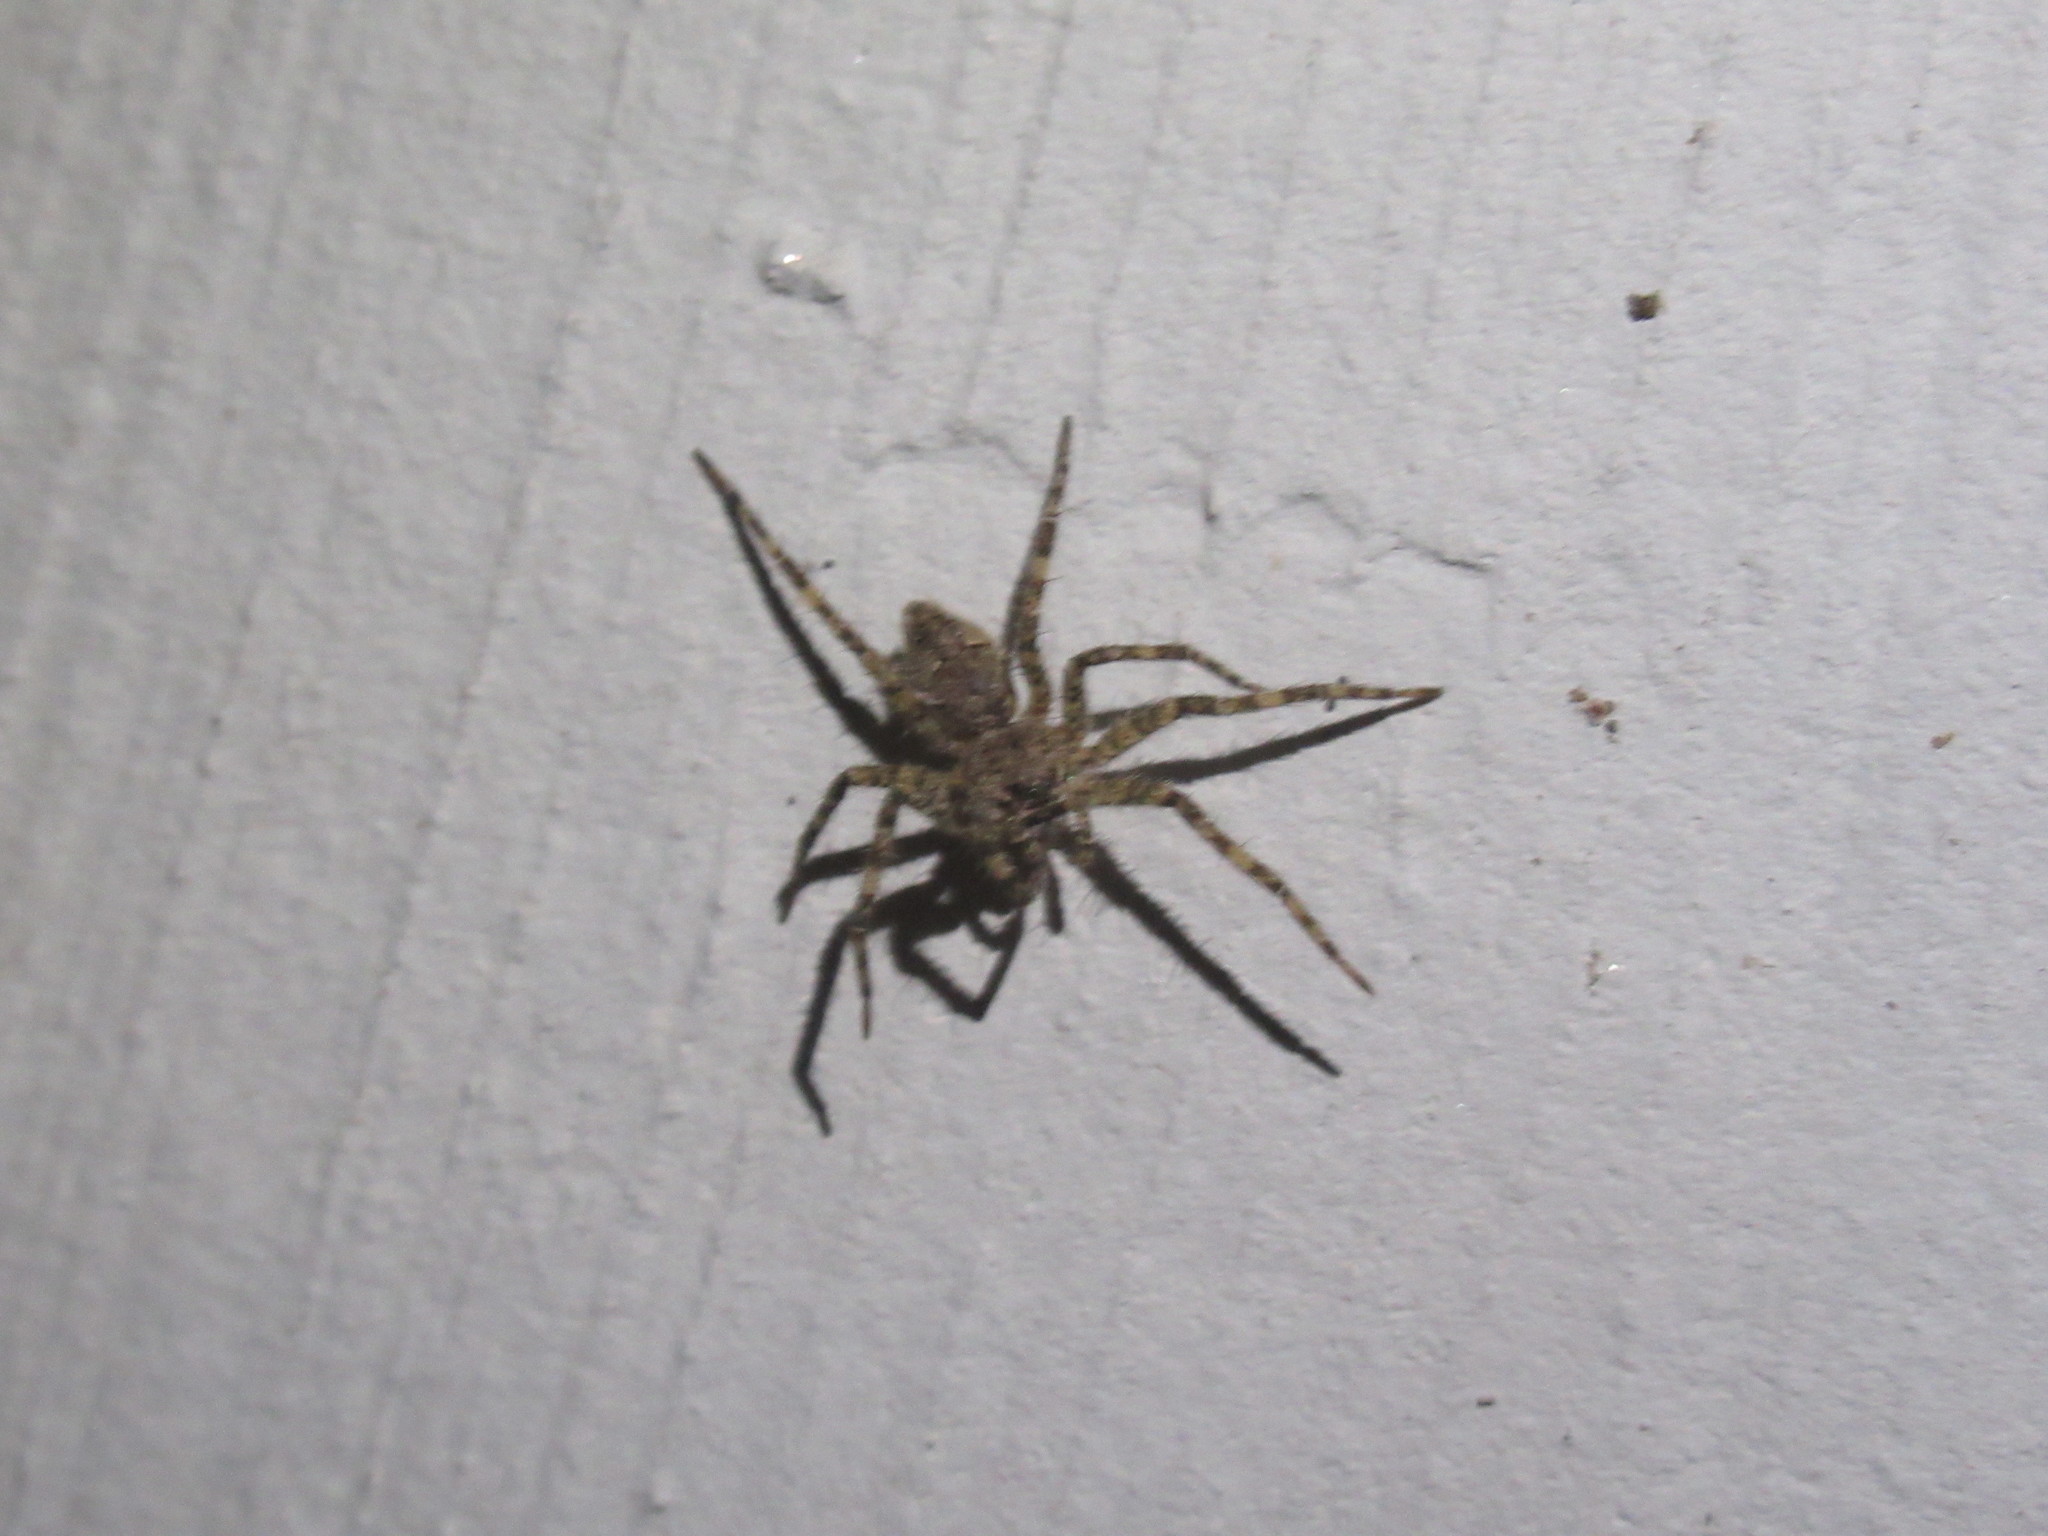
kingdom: Animalia
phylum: Arthropoda
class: Arachnida
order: Araneae
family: Pisauridae
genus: Dolomedes
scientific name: Dolomedes albineus
